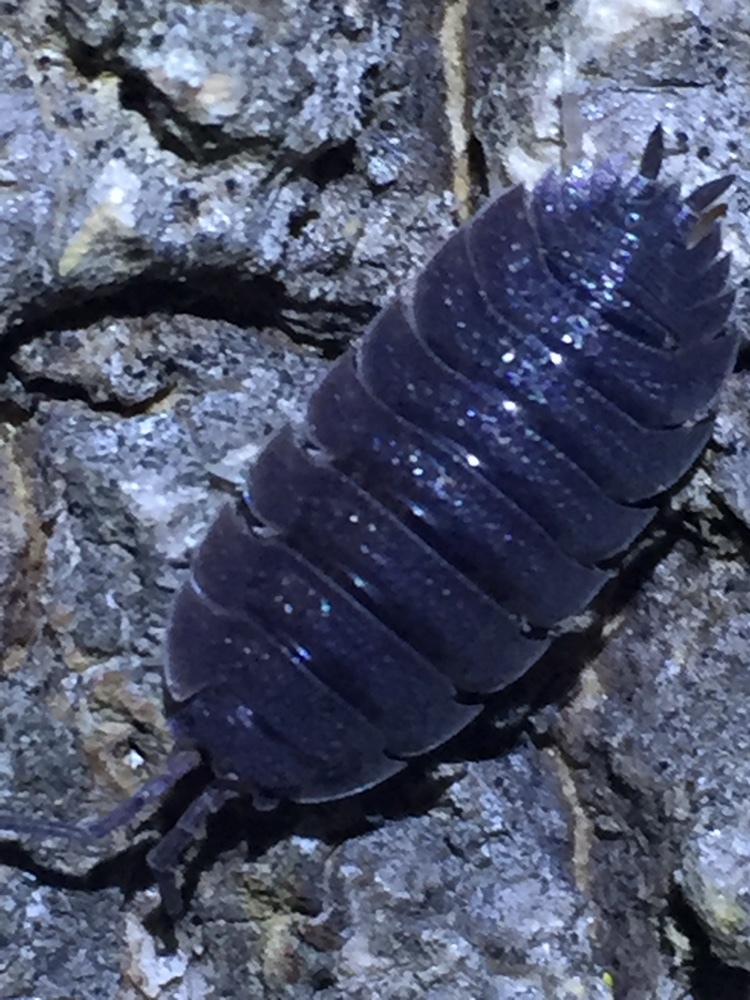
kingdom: Animalia
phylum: Arthropoda
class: Malacostraca
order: Isopoda
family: Porcellionidae
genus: Porcellio
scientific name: Porcellio scaber
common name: Common rough woodlouse
